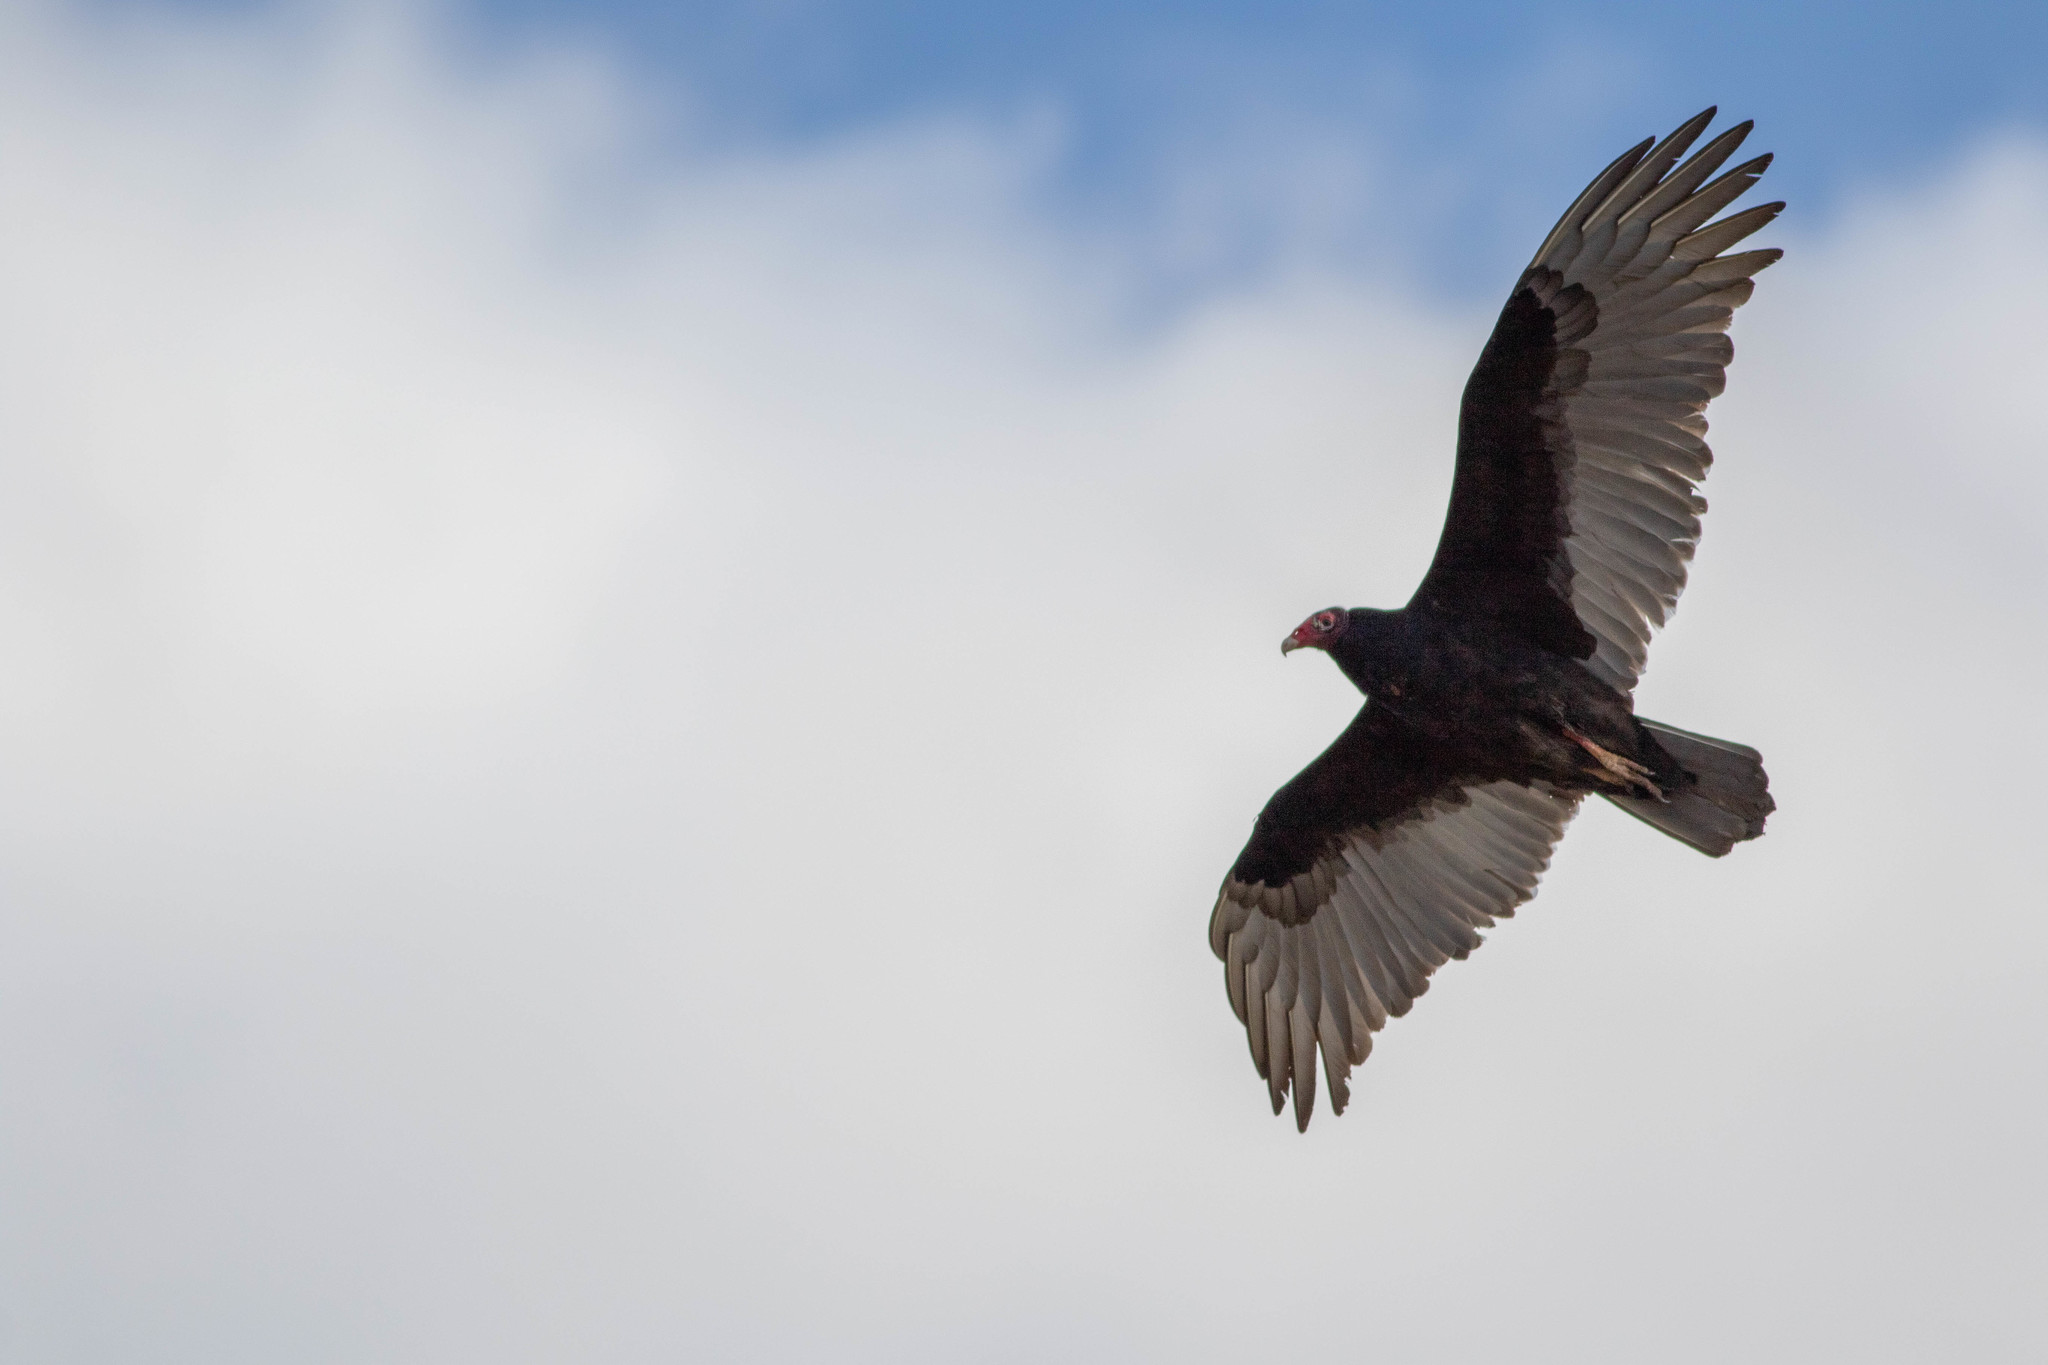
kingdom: Animalia
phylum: Chordata
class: Aves
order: Accipitriformes
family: Cathartidae
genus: Cathartes
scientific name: Cathartes aura
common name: Turkey vulture
